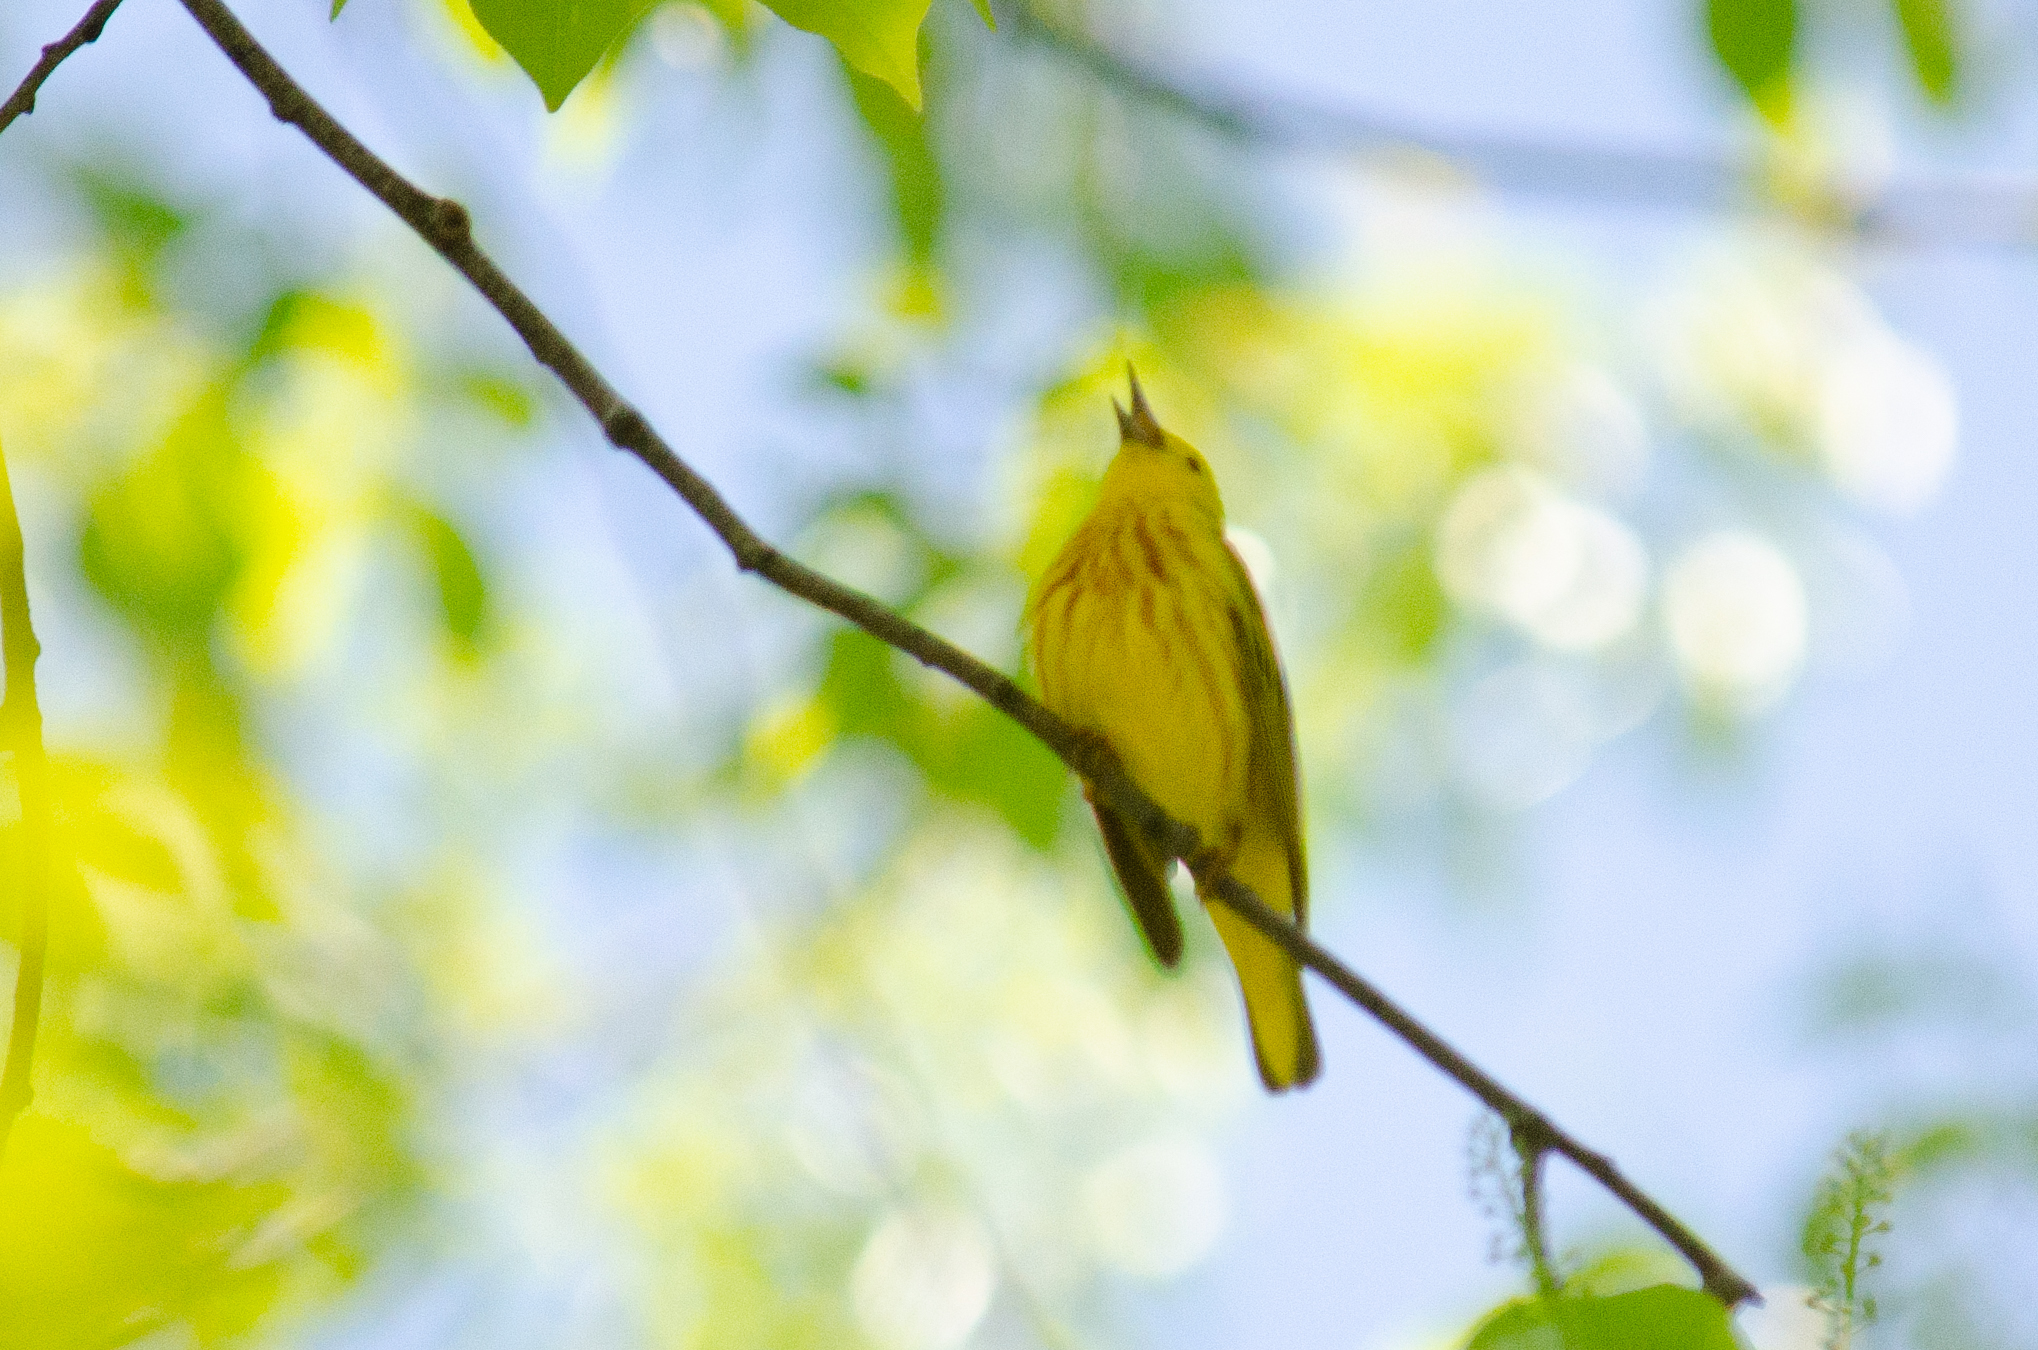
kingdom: Animalia
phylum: Chordata
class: Aves
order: Passeriformes
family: Parulidae
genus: Setophaga
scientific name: Setophaga petechia
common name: Yellow warbler
